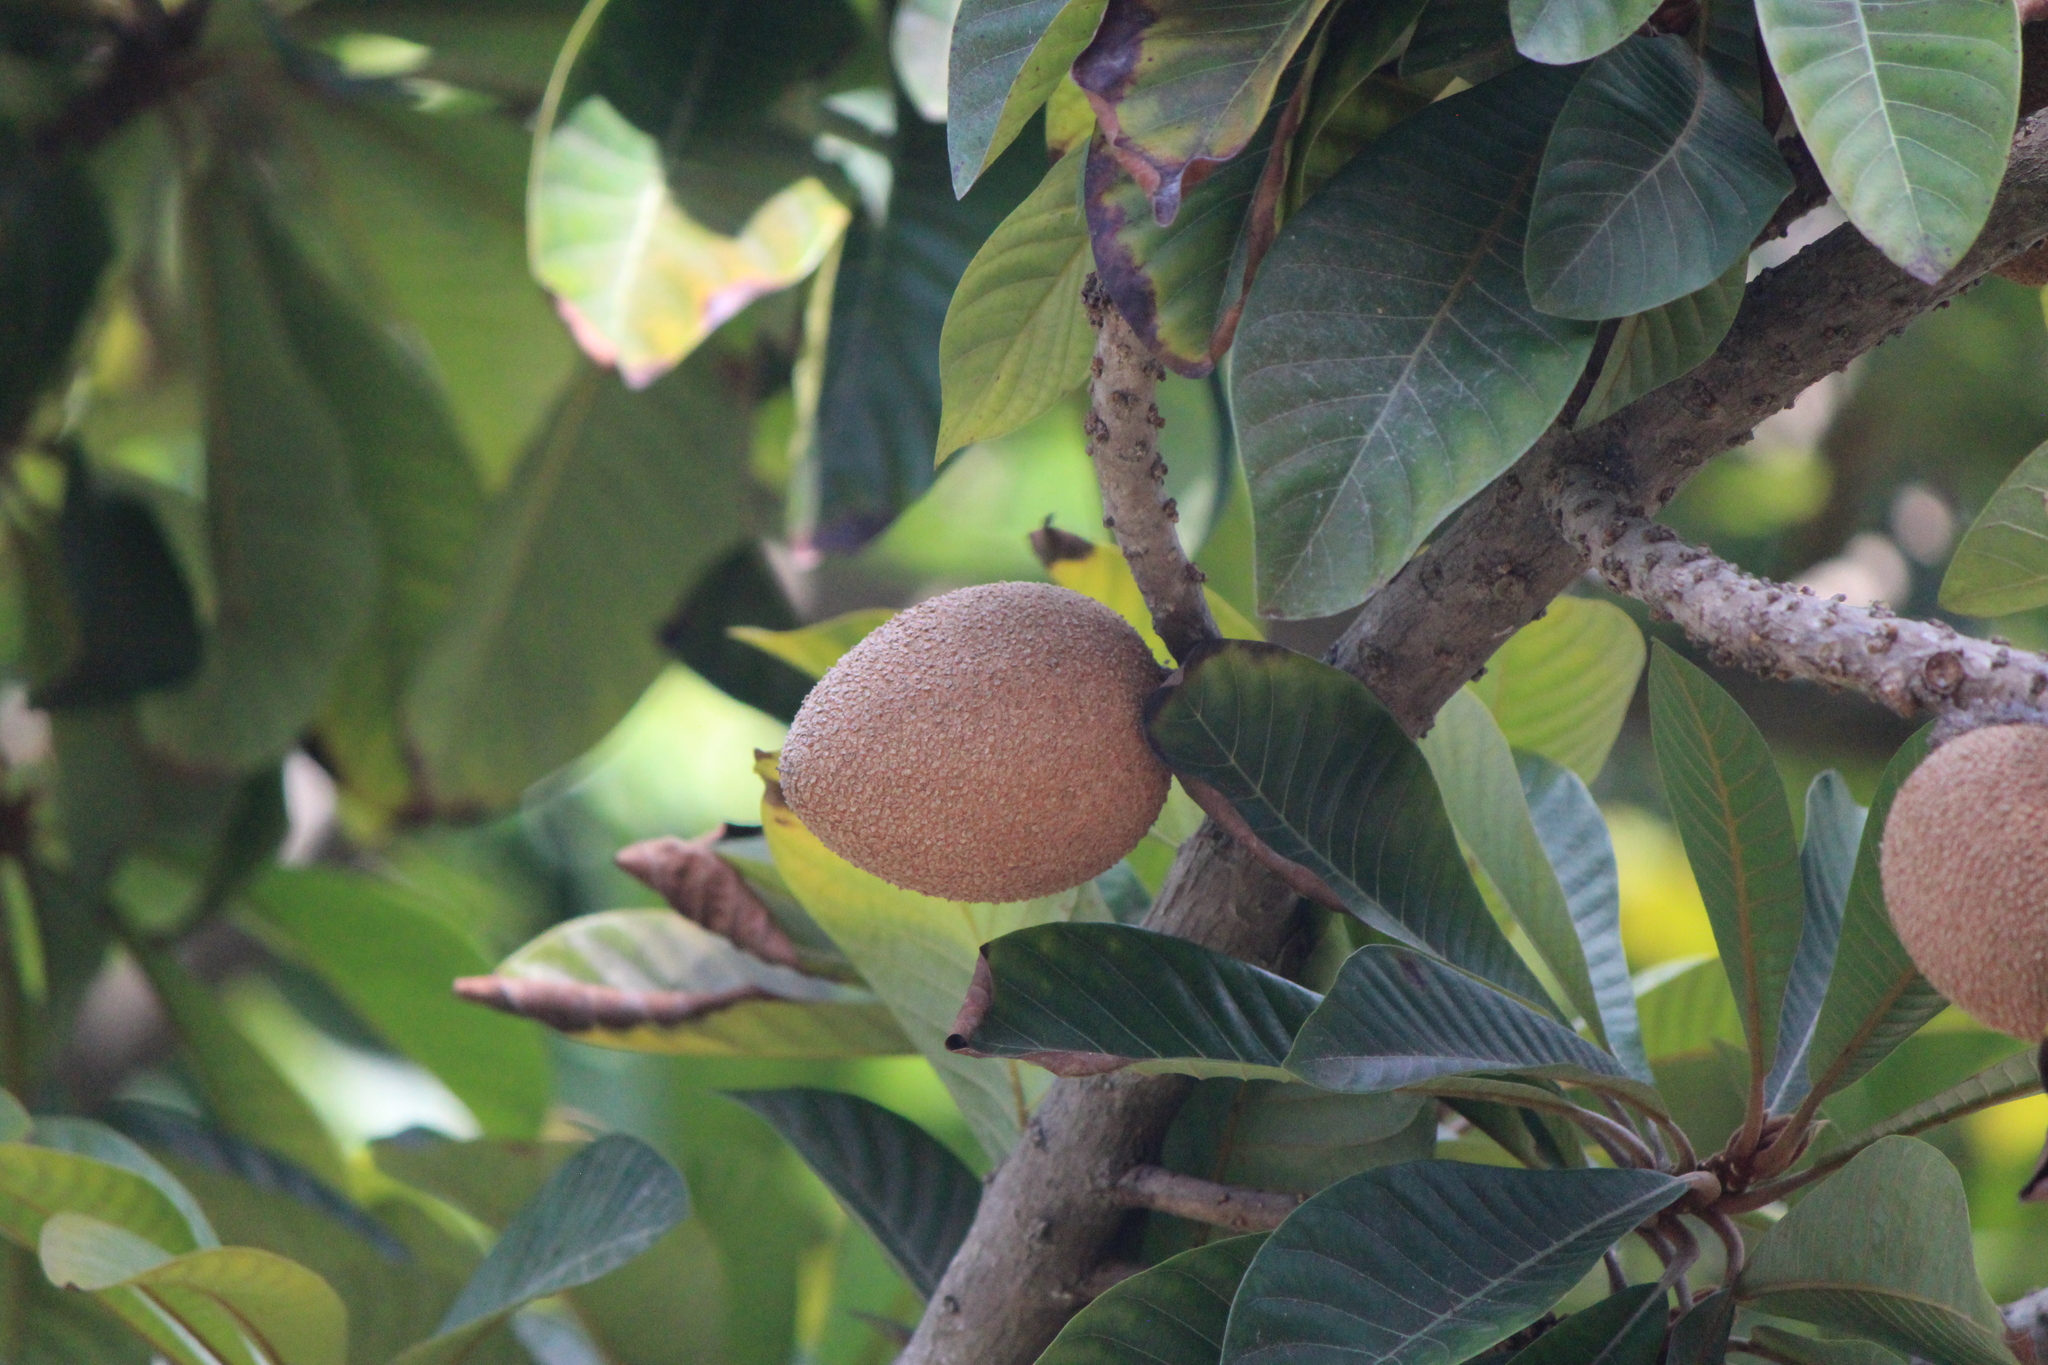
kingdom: Plantae
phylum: Tracheophyta
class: Magnoliopsida
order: Ericales
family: Sapotaceae
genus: Pouteria
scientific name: Pouteria sapota
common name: Mamey
